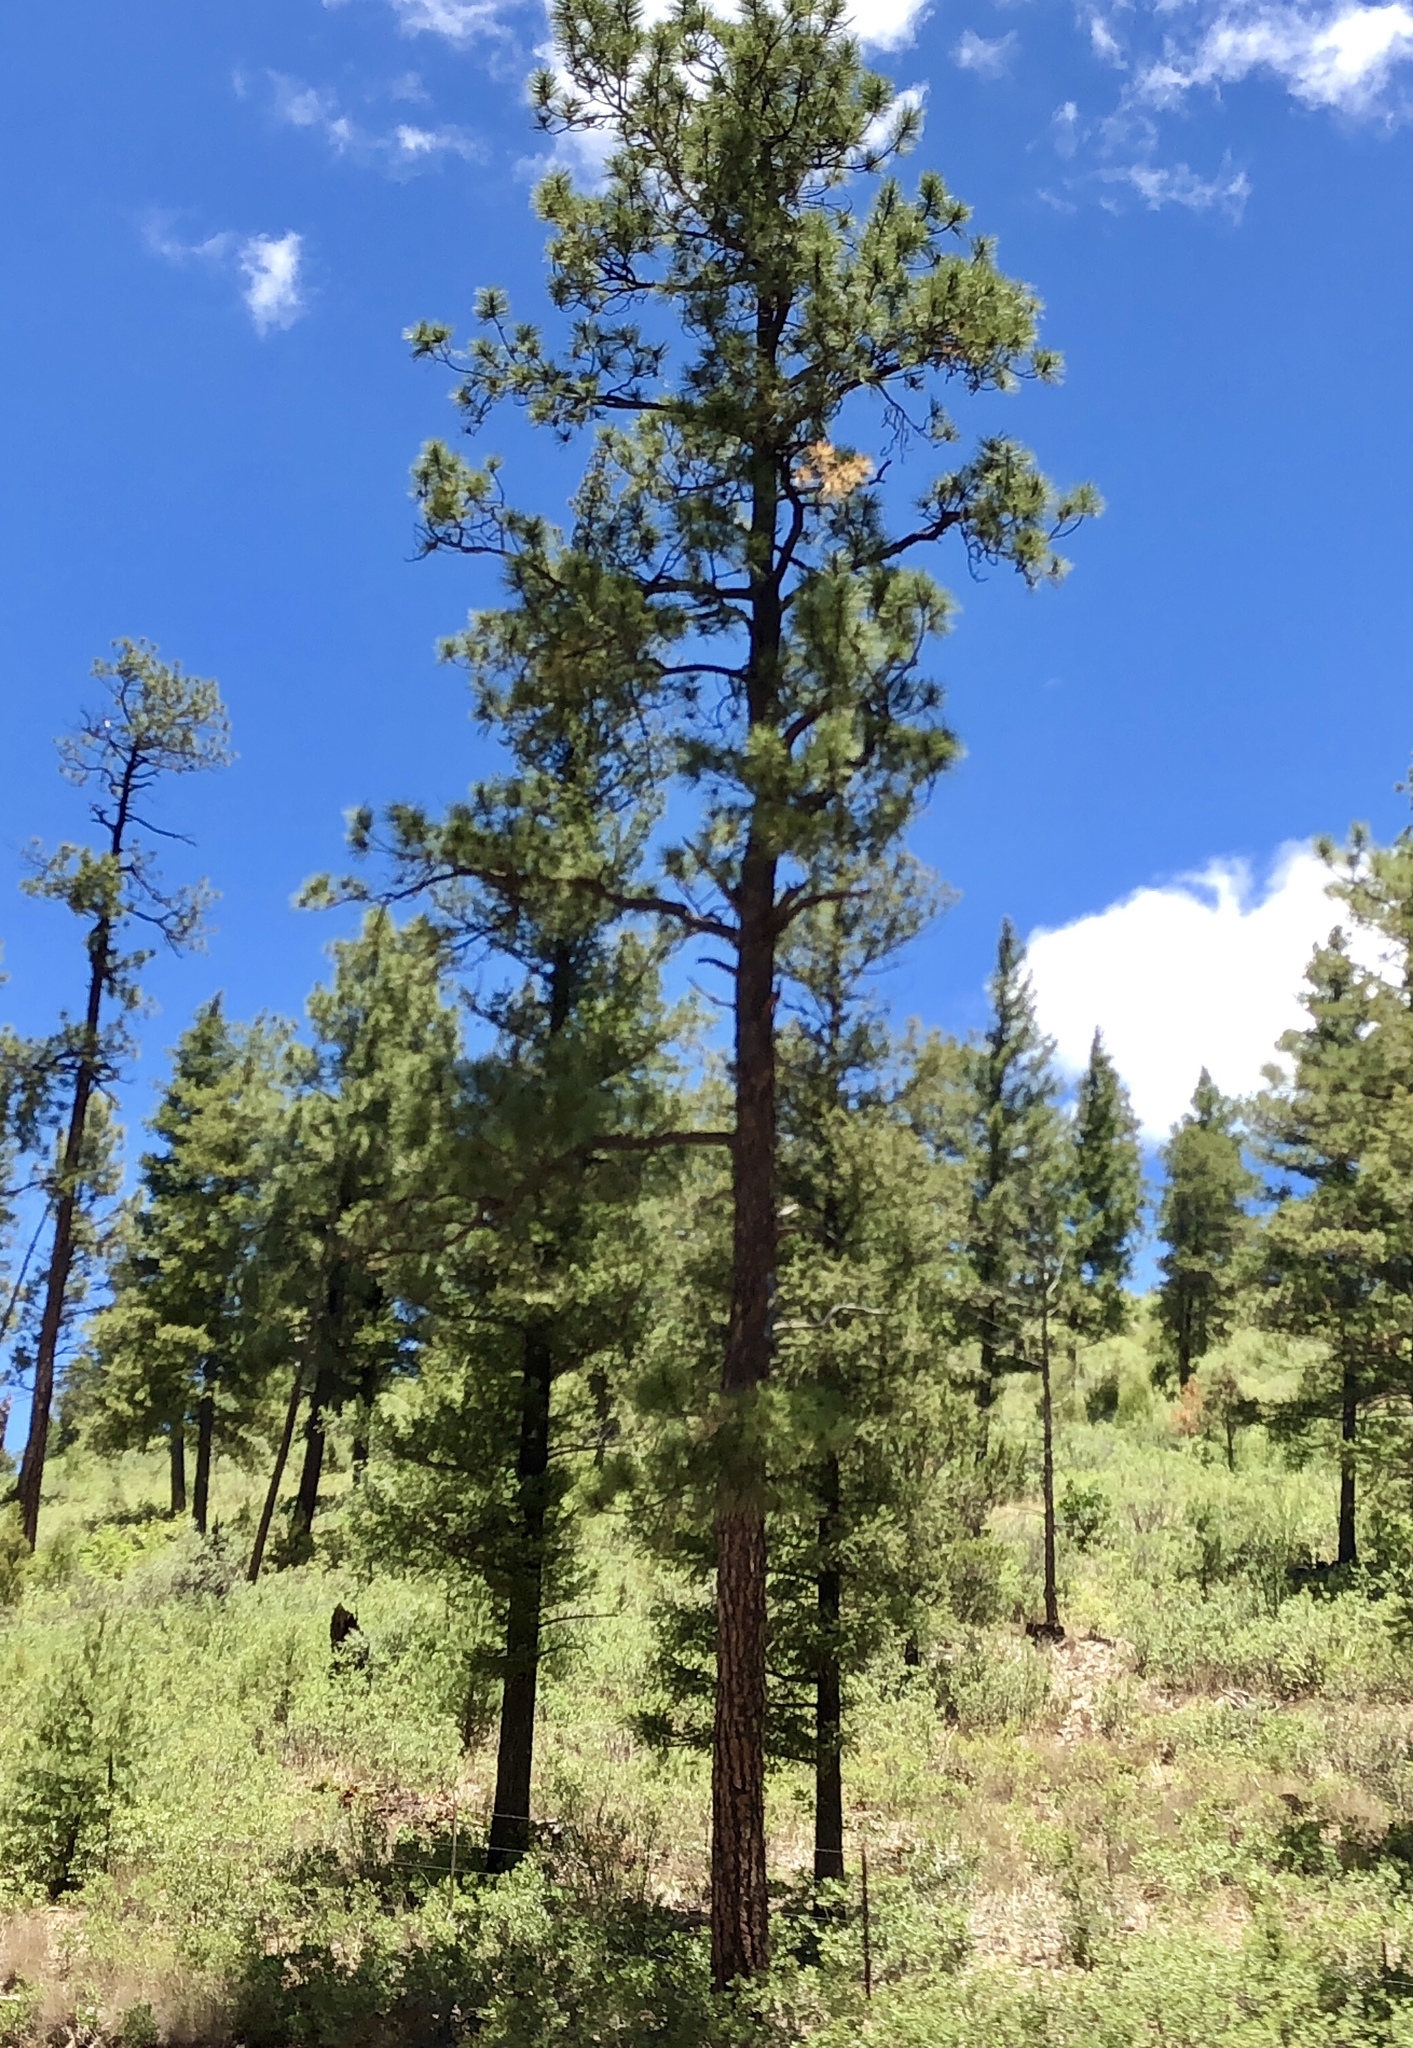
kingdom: Plantae
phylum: Tracheophyta
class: Pinopsida
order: Pinales
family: Pinaceae
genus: Pinus
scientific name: Pinus ponderosa
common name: Western yellow-pine
